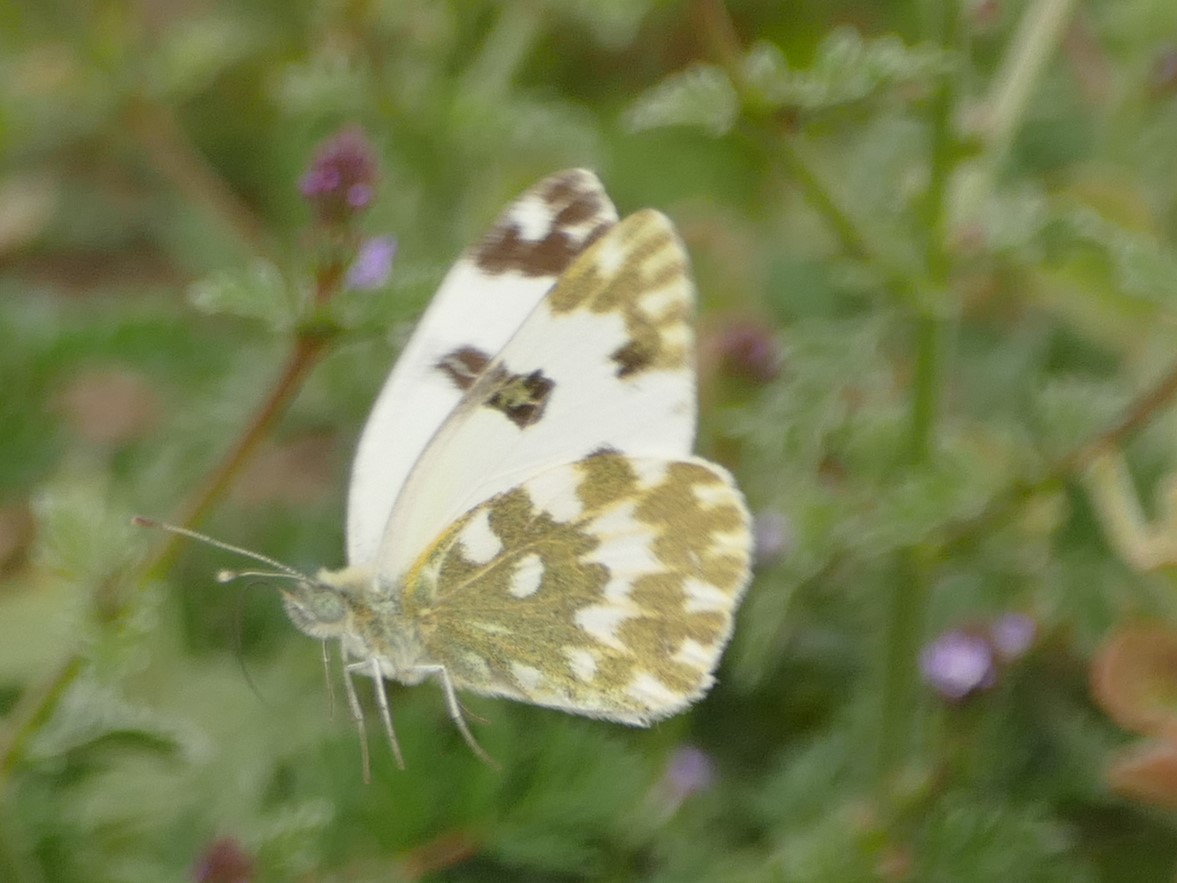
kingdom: Animalia
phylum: Arthropoda
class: Insecta
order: Lepidoptera
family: Pieridae
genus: Pontia
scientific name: Pontia daplidice
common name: Bath white
